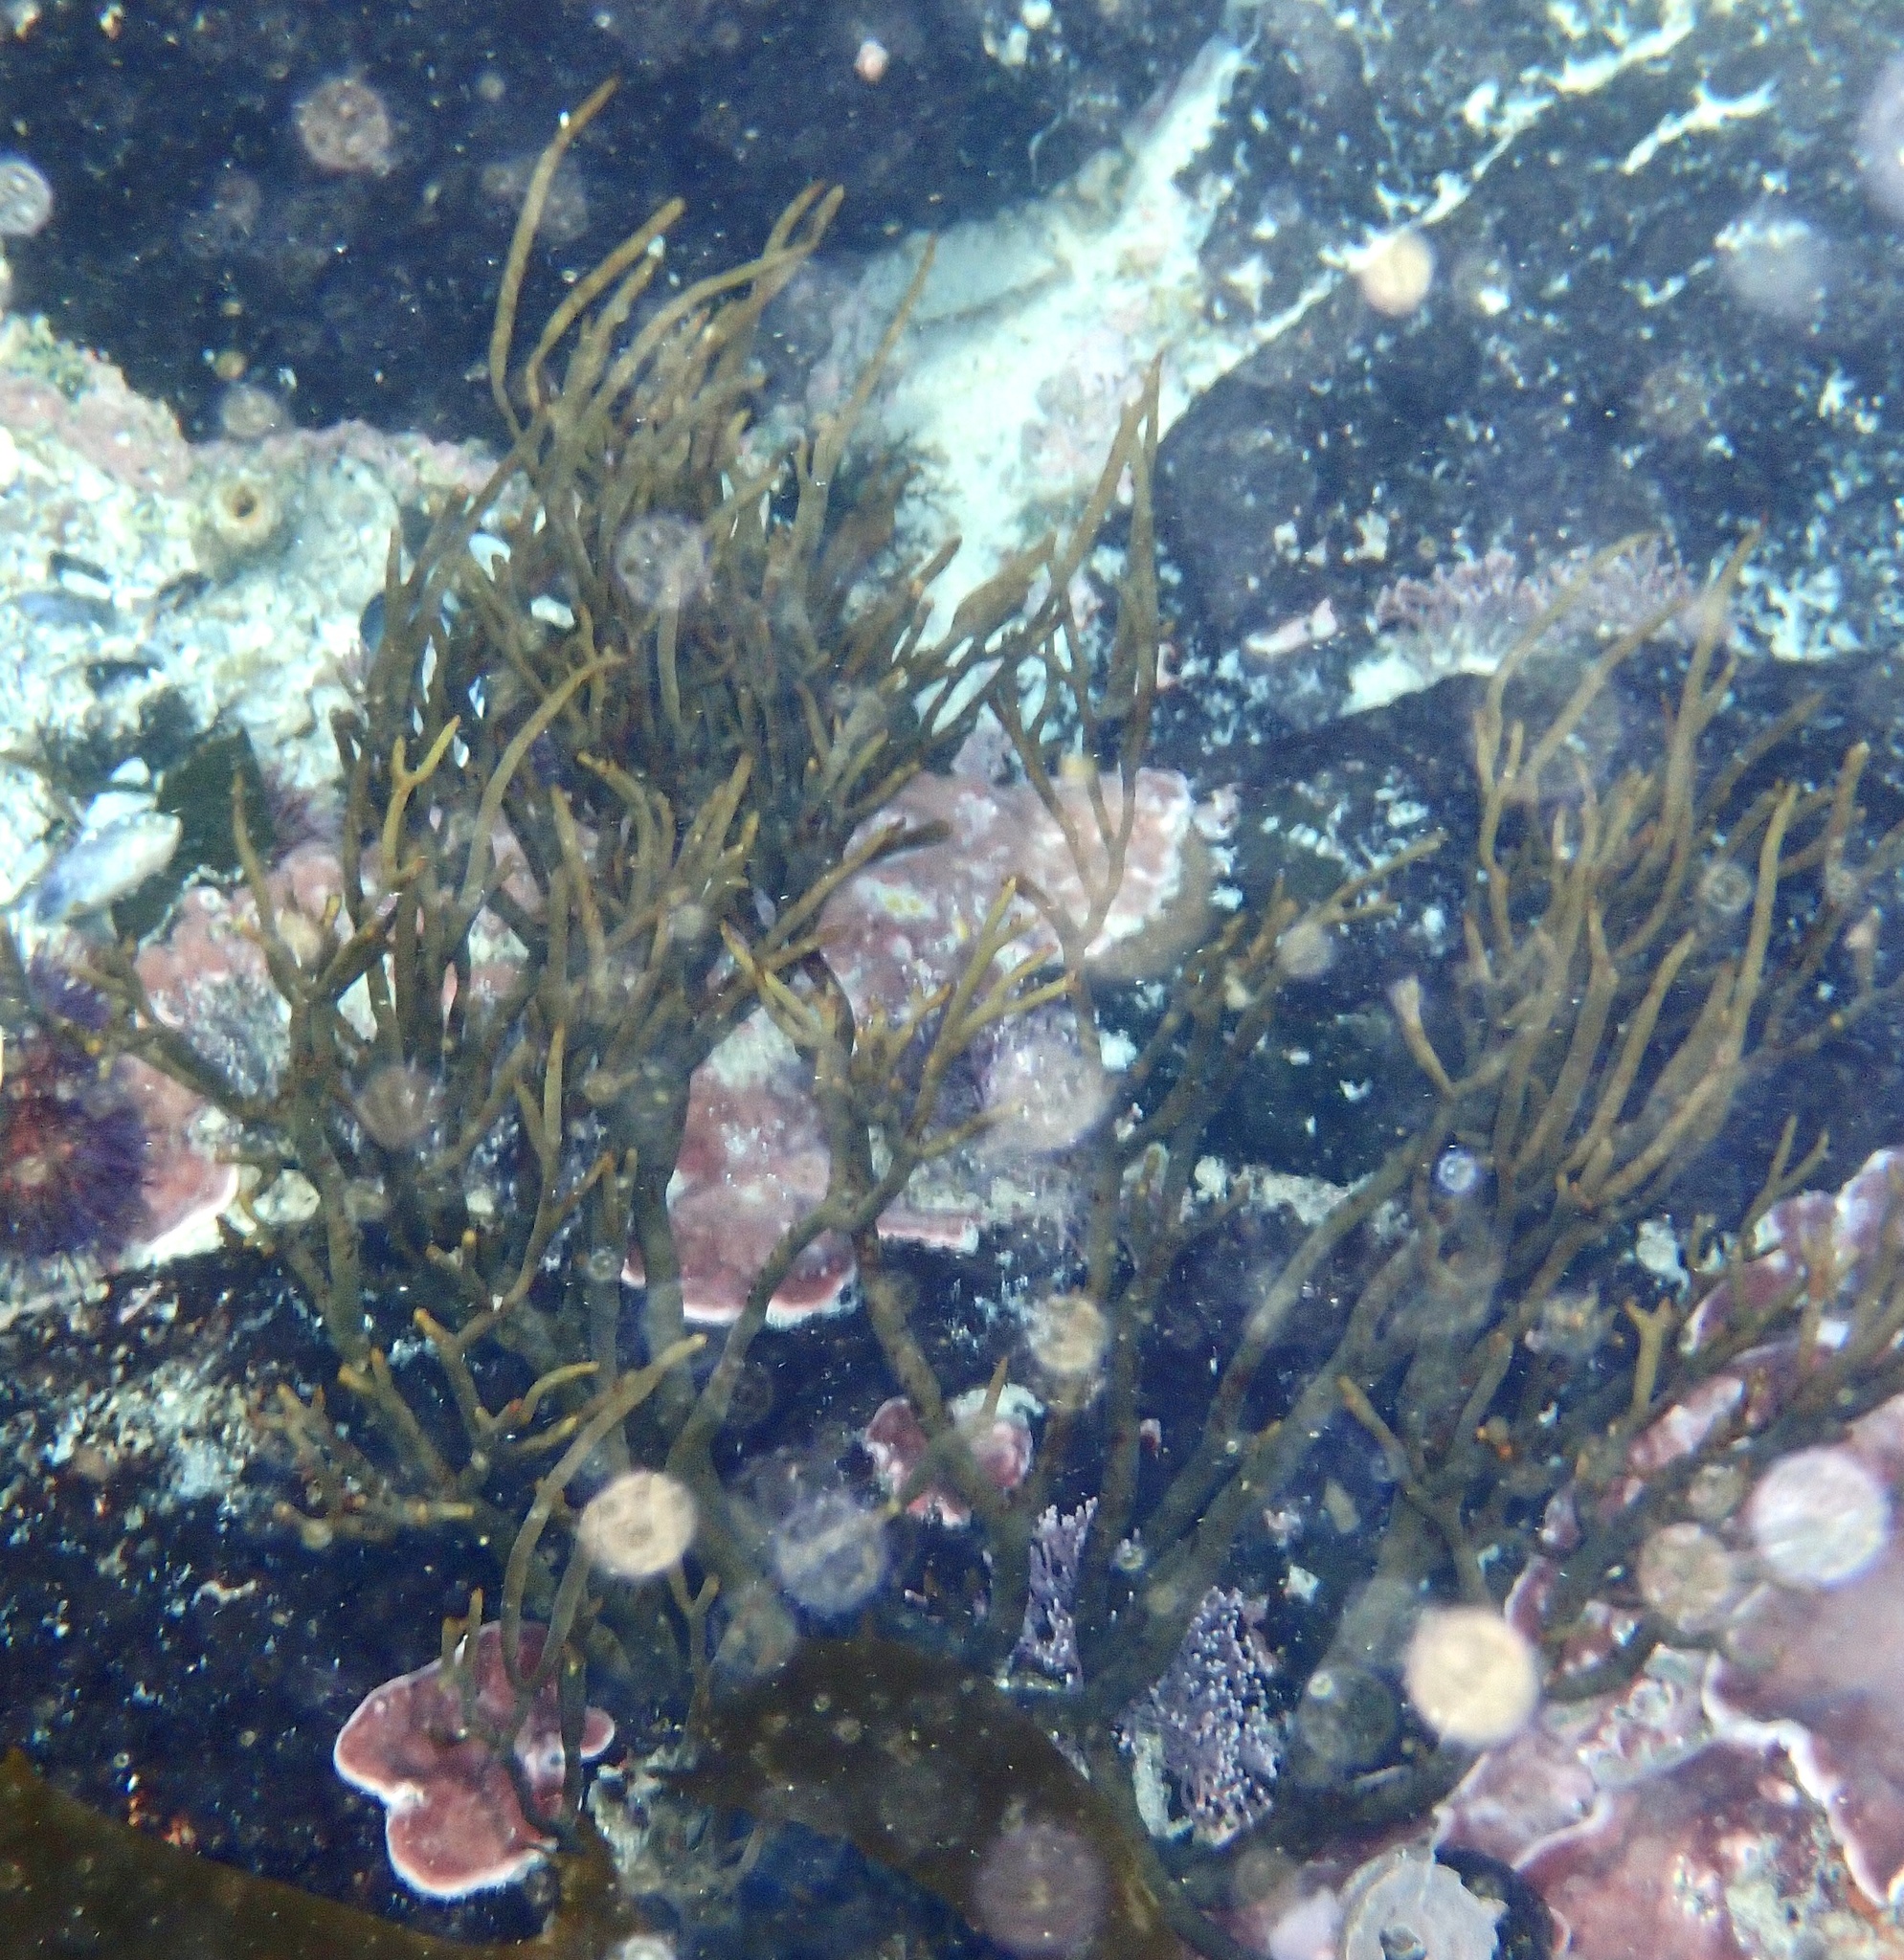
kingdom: Chromista
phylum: Ochrophyta
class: Phaeophyceae
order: Fucales
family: Bifurcariopsidaceae
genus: Bifurcariopsis
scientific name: Bifurcariopsis
